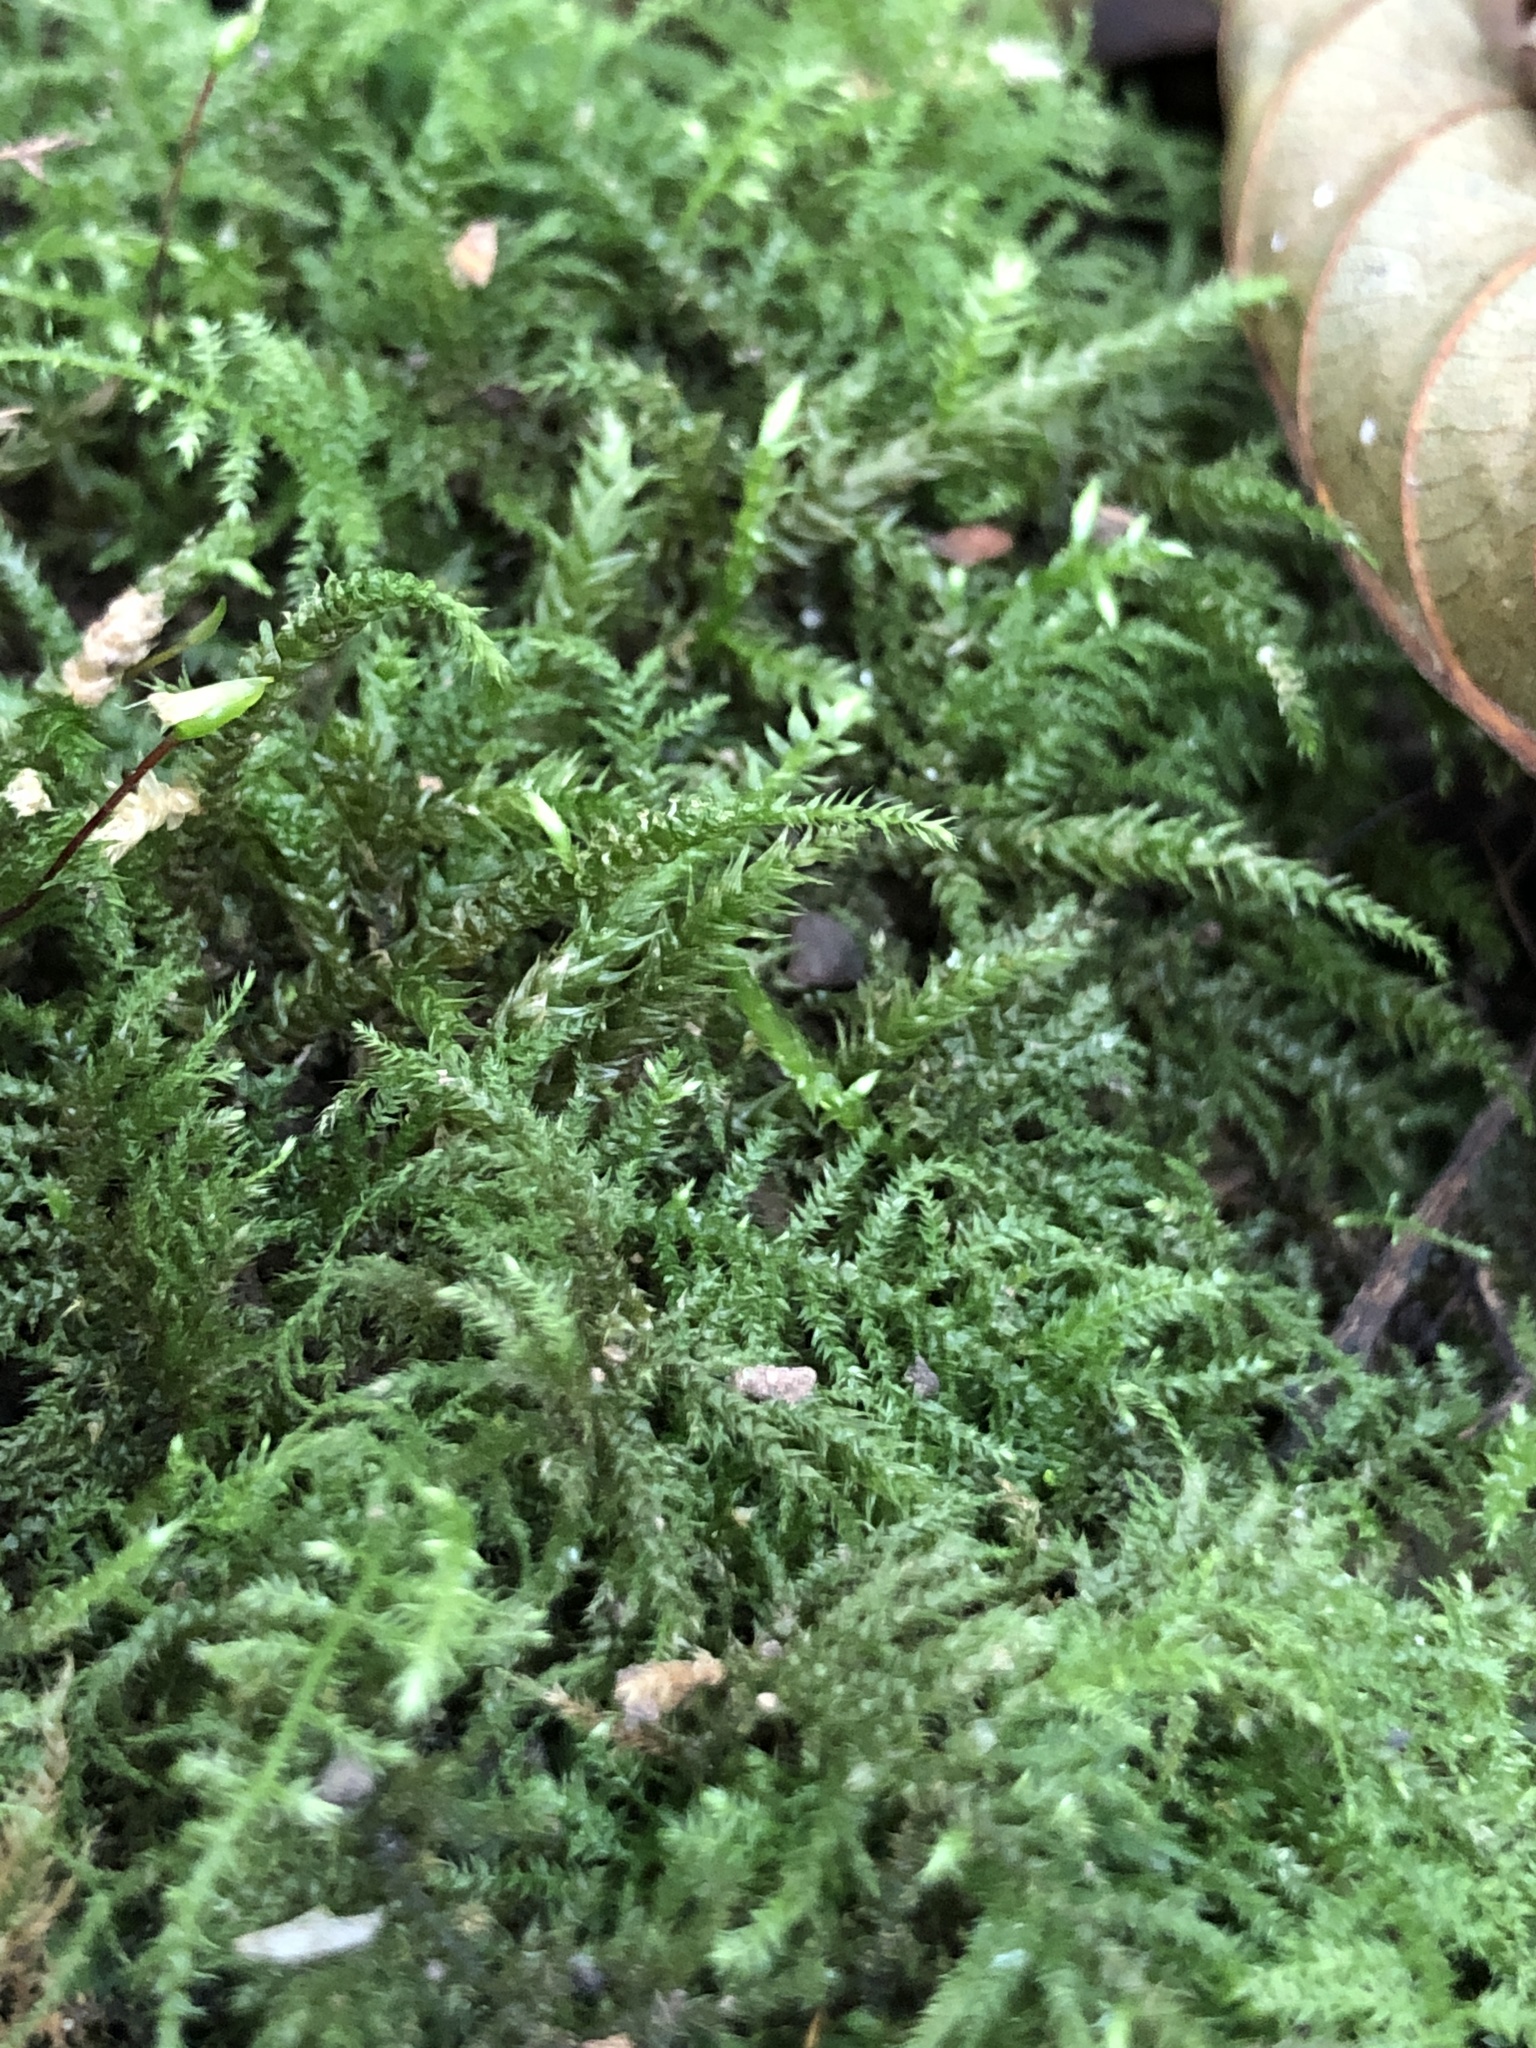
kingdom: Plantae
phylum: Bryophyta
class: Bryopsida
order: Hypnales
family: Brachytheciaceae
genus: Kindbergia
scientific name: Kindbergia praelonga
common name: Slender beaked moss
